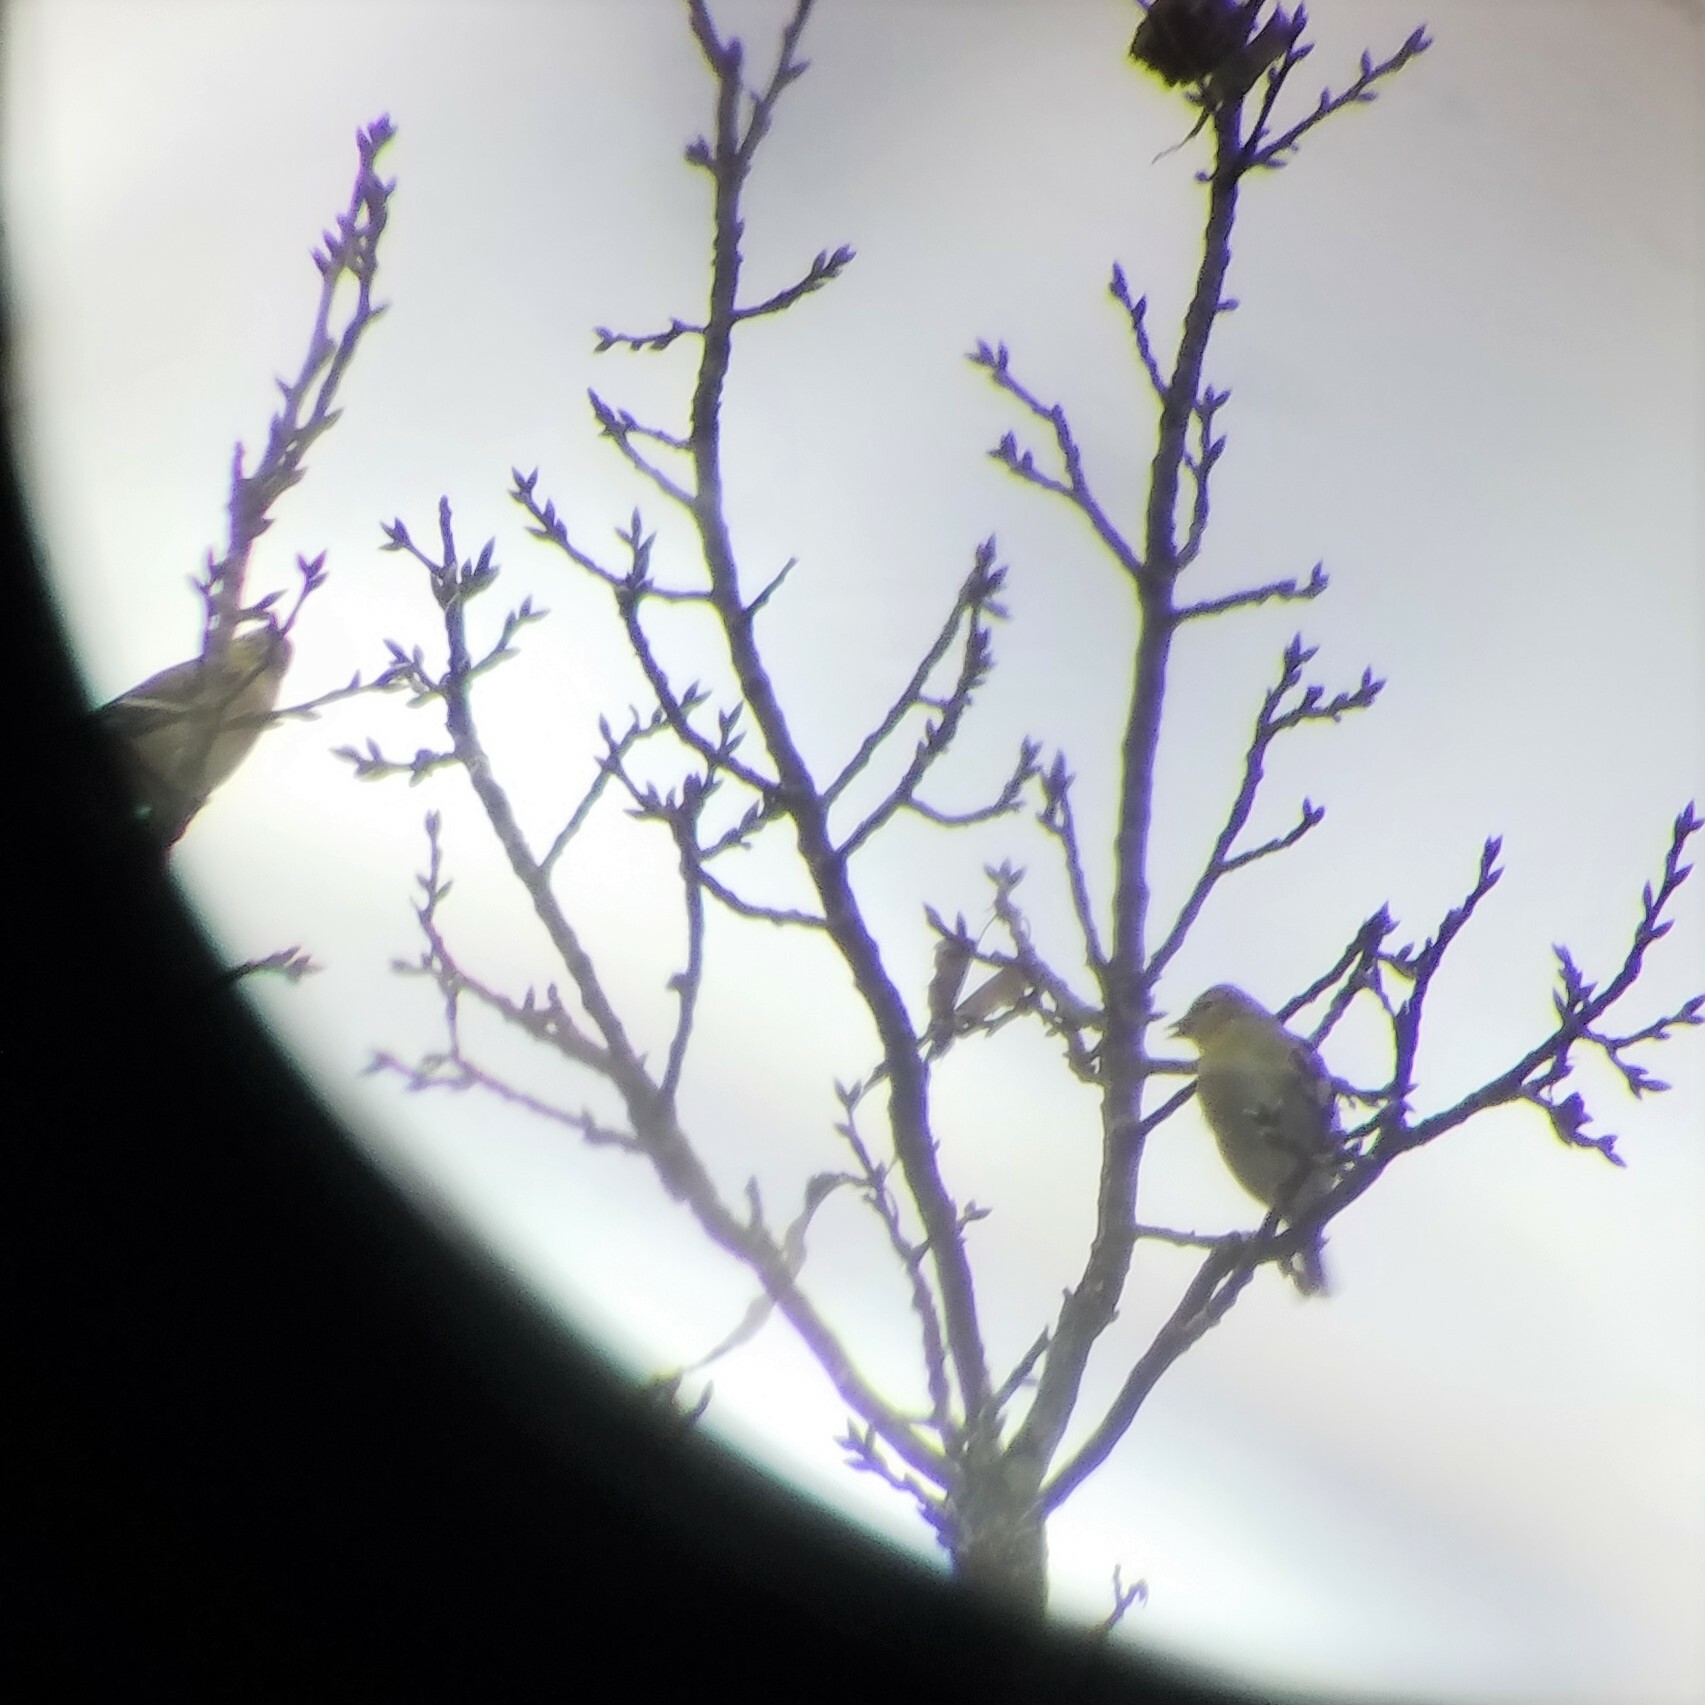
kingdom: Animalia
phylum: Chordata
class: Aves
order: Passeriformes
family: Fringillidae
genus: Spinus
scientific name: Spinus tristis
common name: American goldfinch
